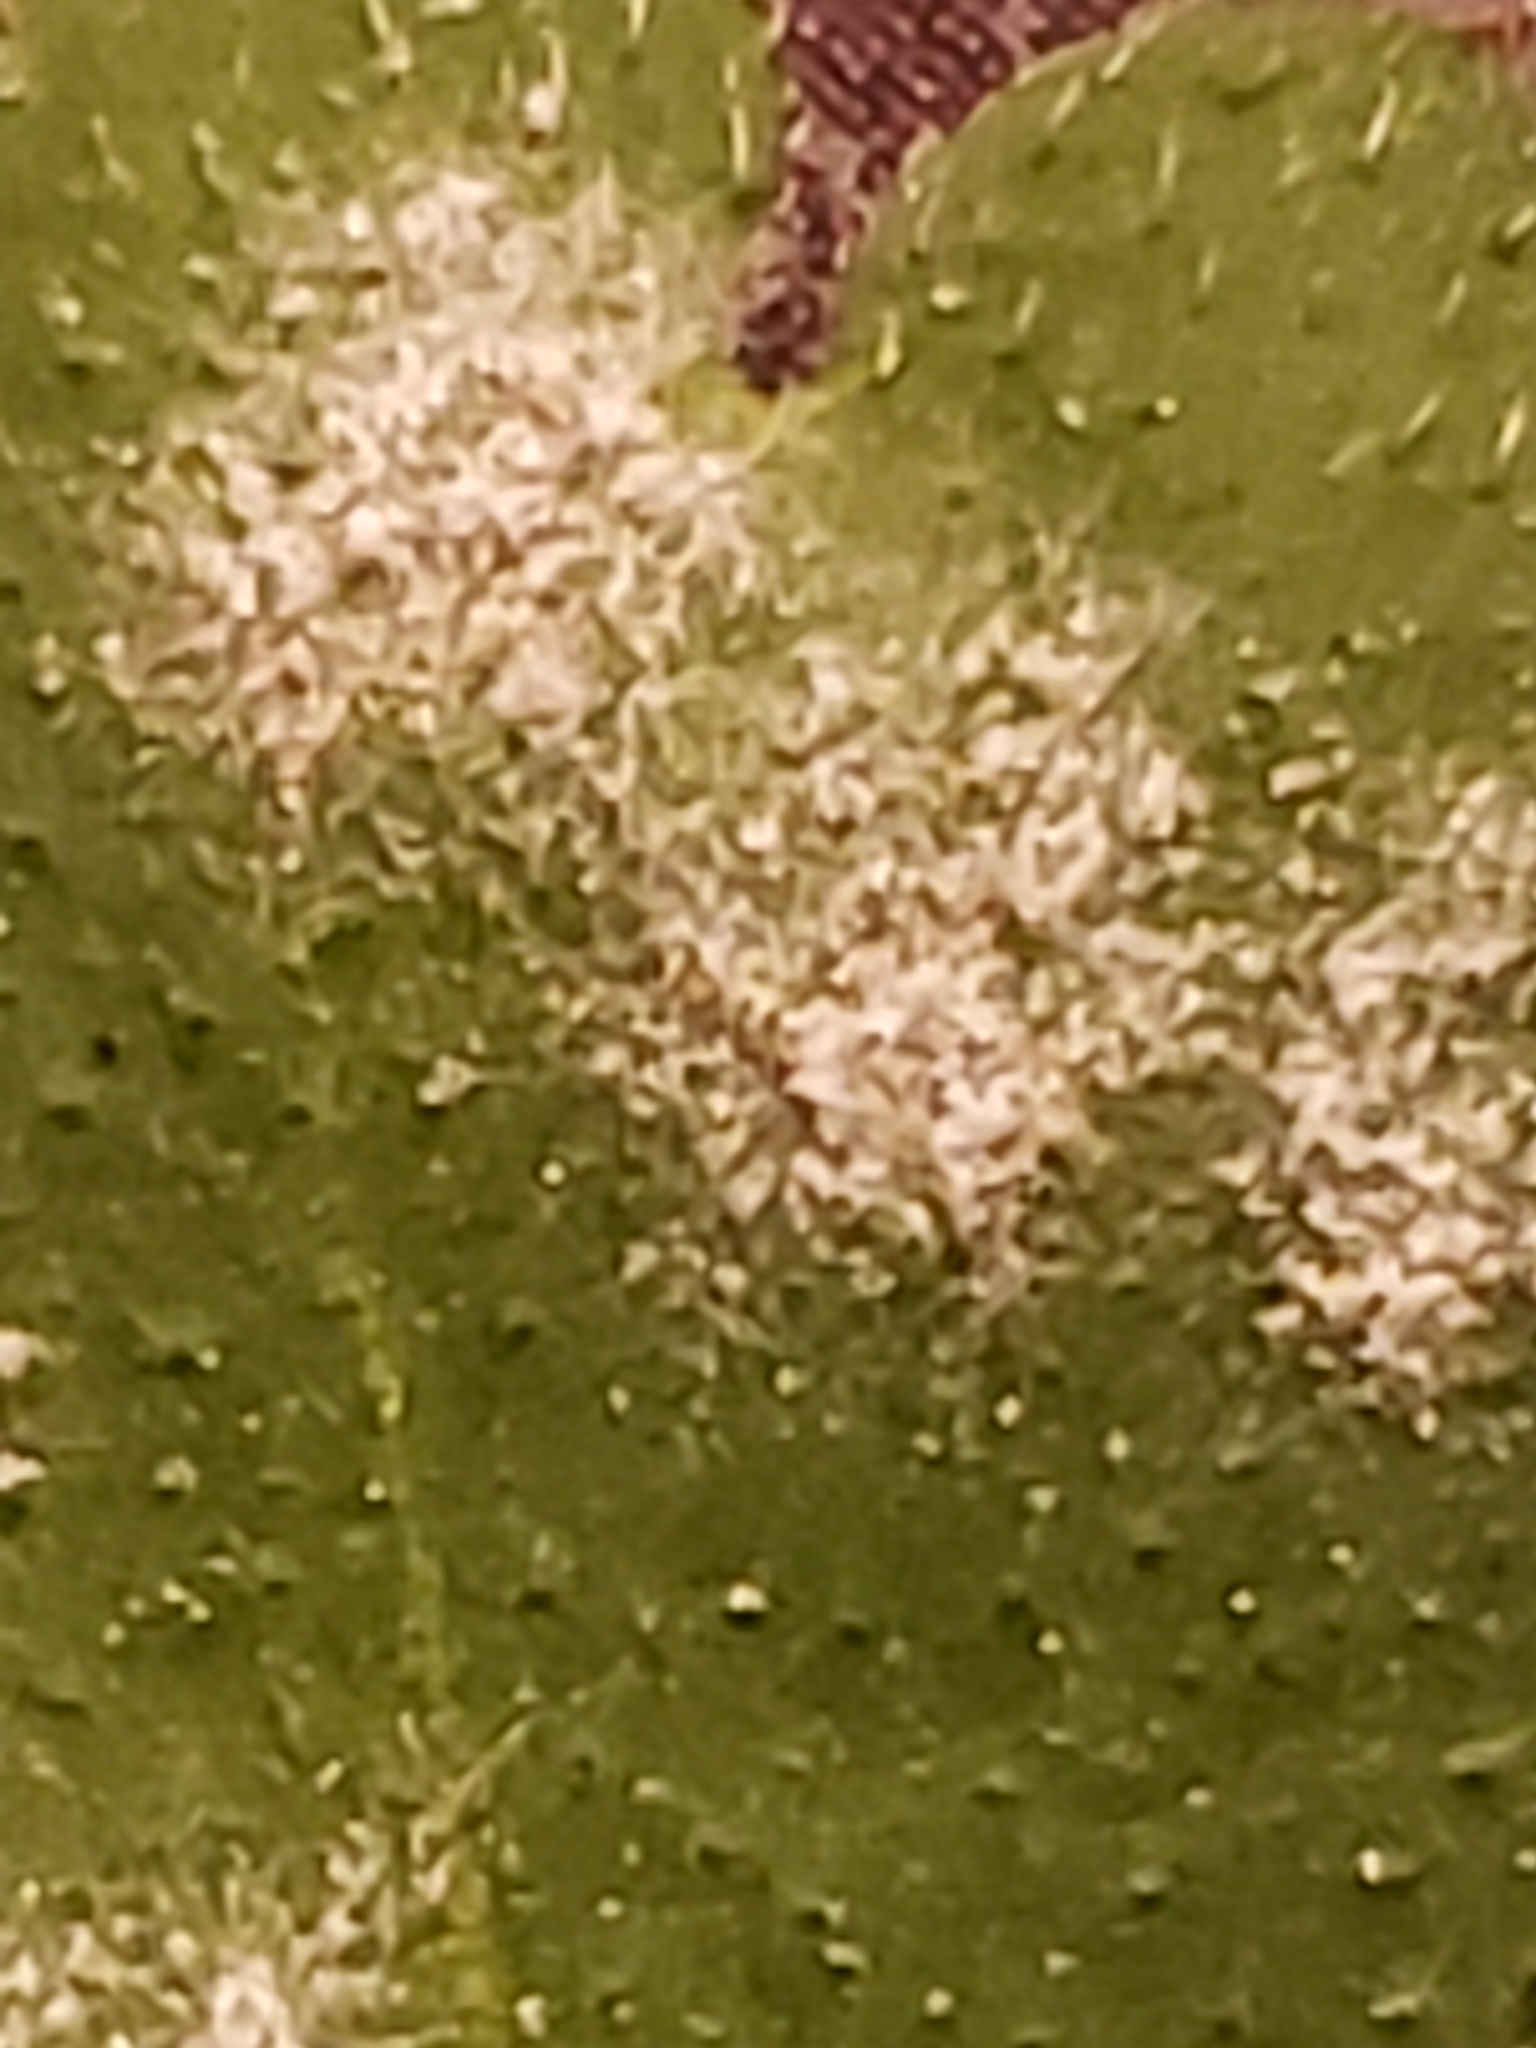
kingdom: Fungi
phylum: Ascomycota
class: Leotiomycetes
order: Helotiales
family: Erysiphaceae
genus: Golovinomyces
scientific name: Golovinomyces hydrophyllacearum
